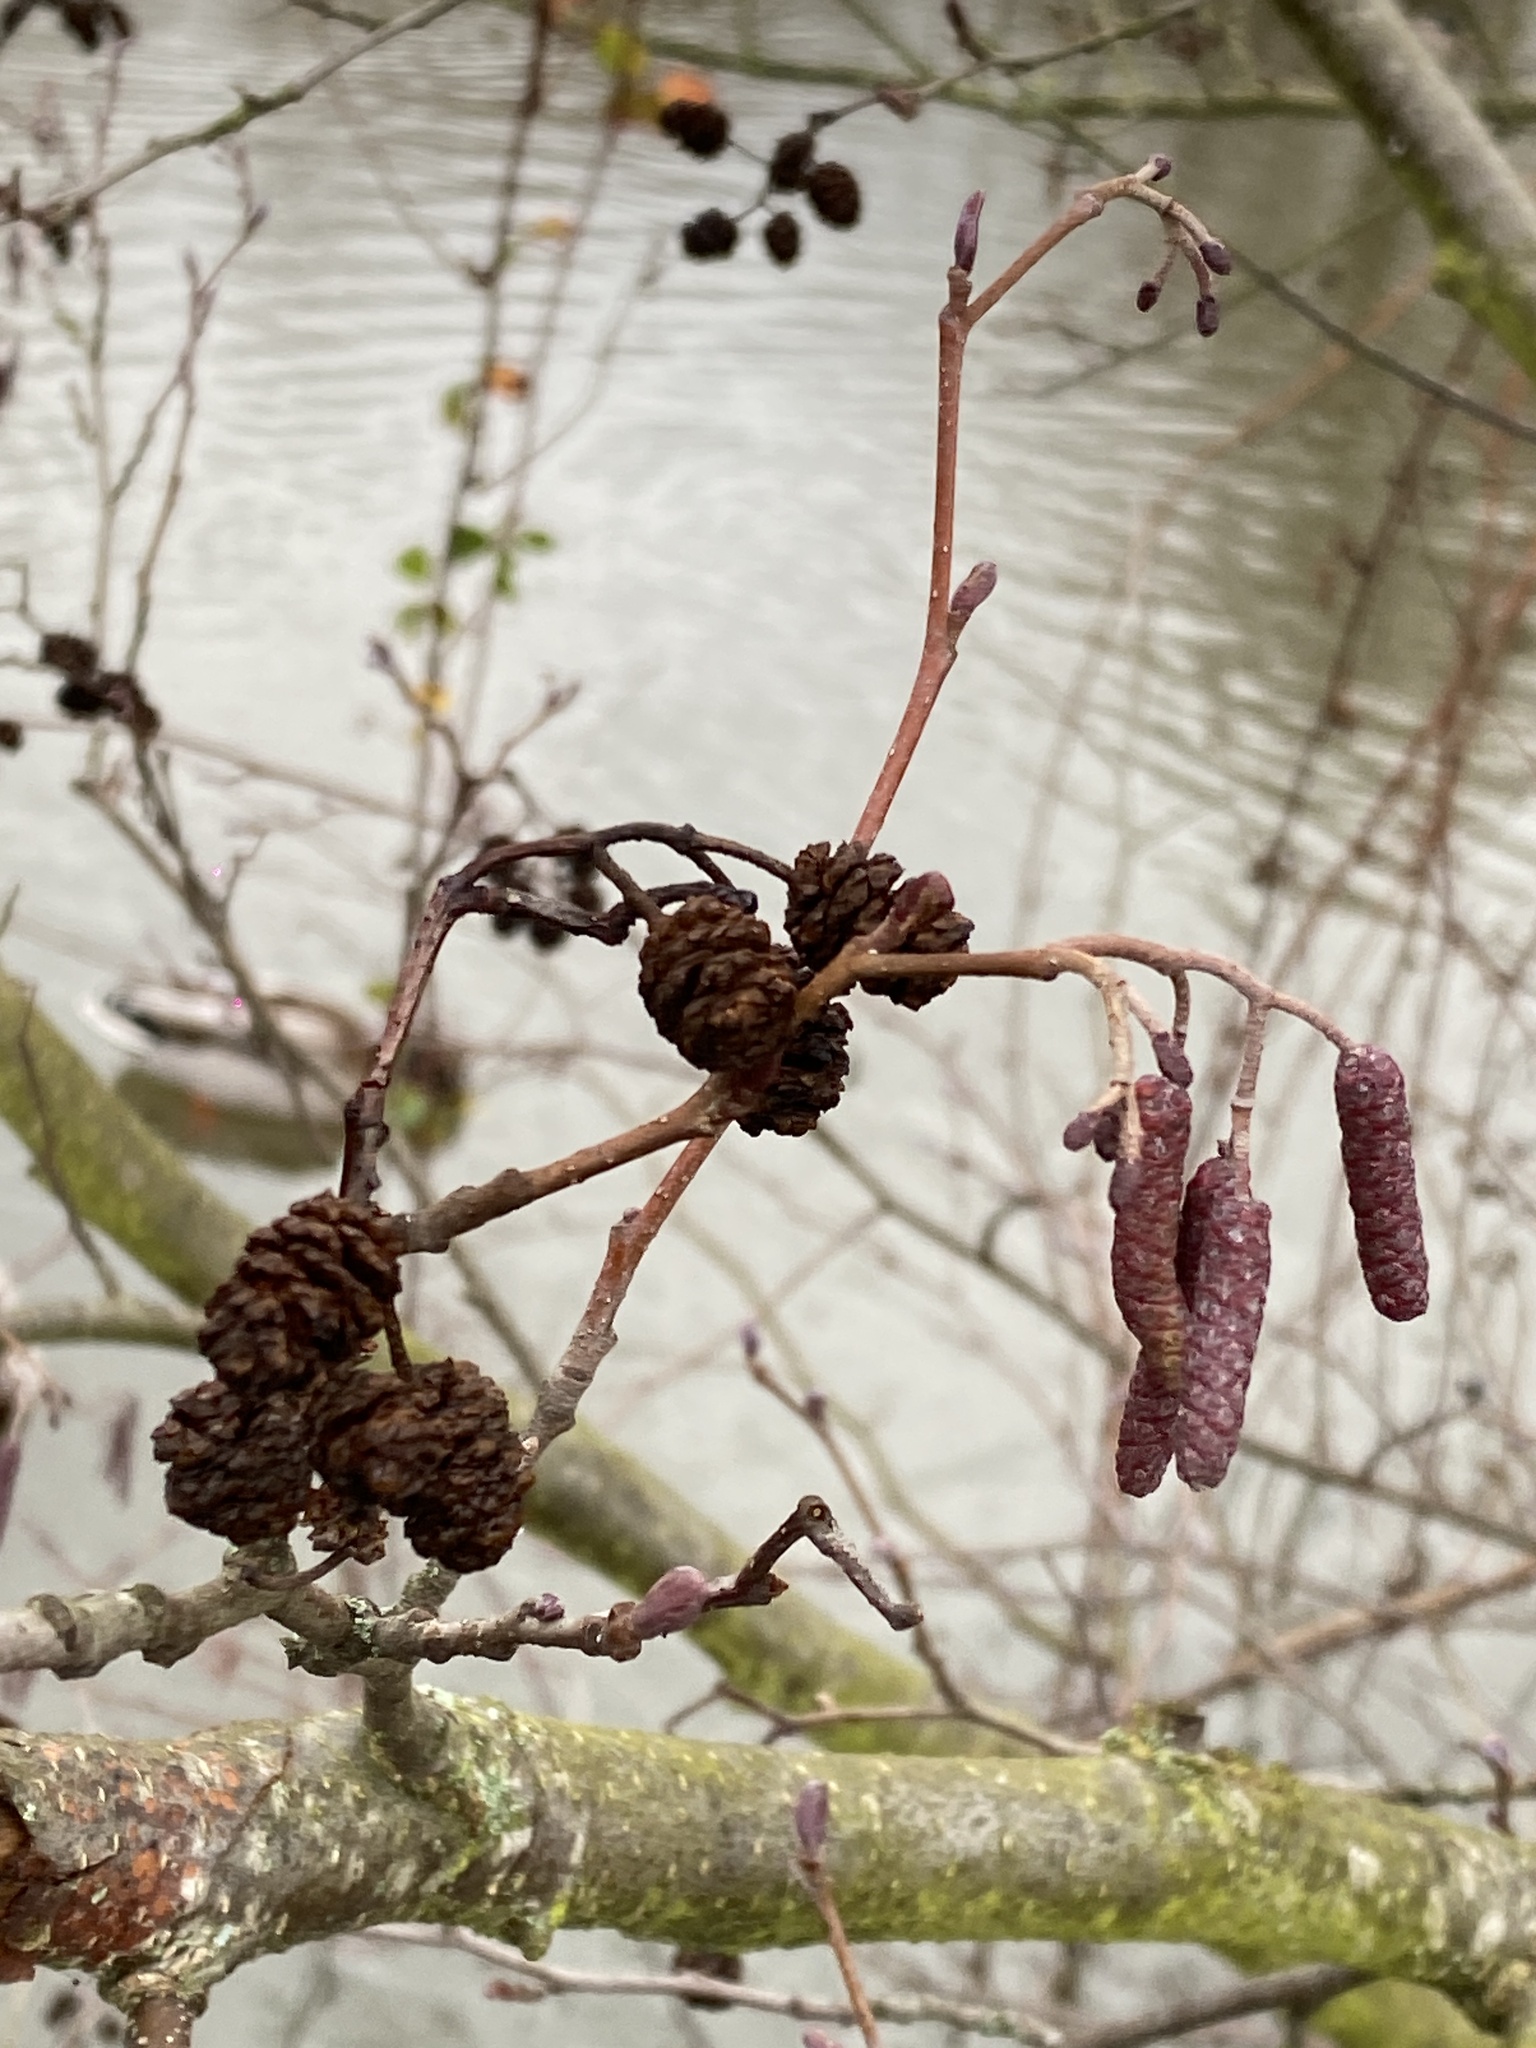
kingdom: Plantae
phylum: Tracheophyta
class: Magnoliopsida
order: Fagales
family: Betulaceae
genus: Alnus
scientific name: Alnus glutinosa
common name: Black alder
